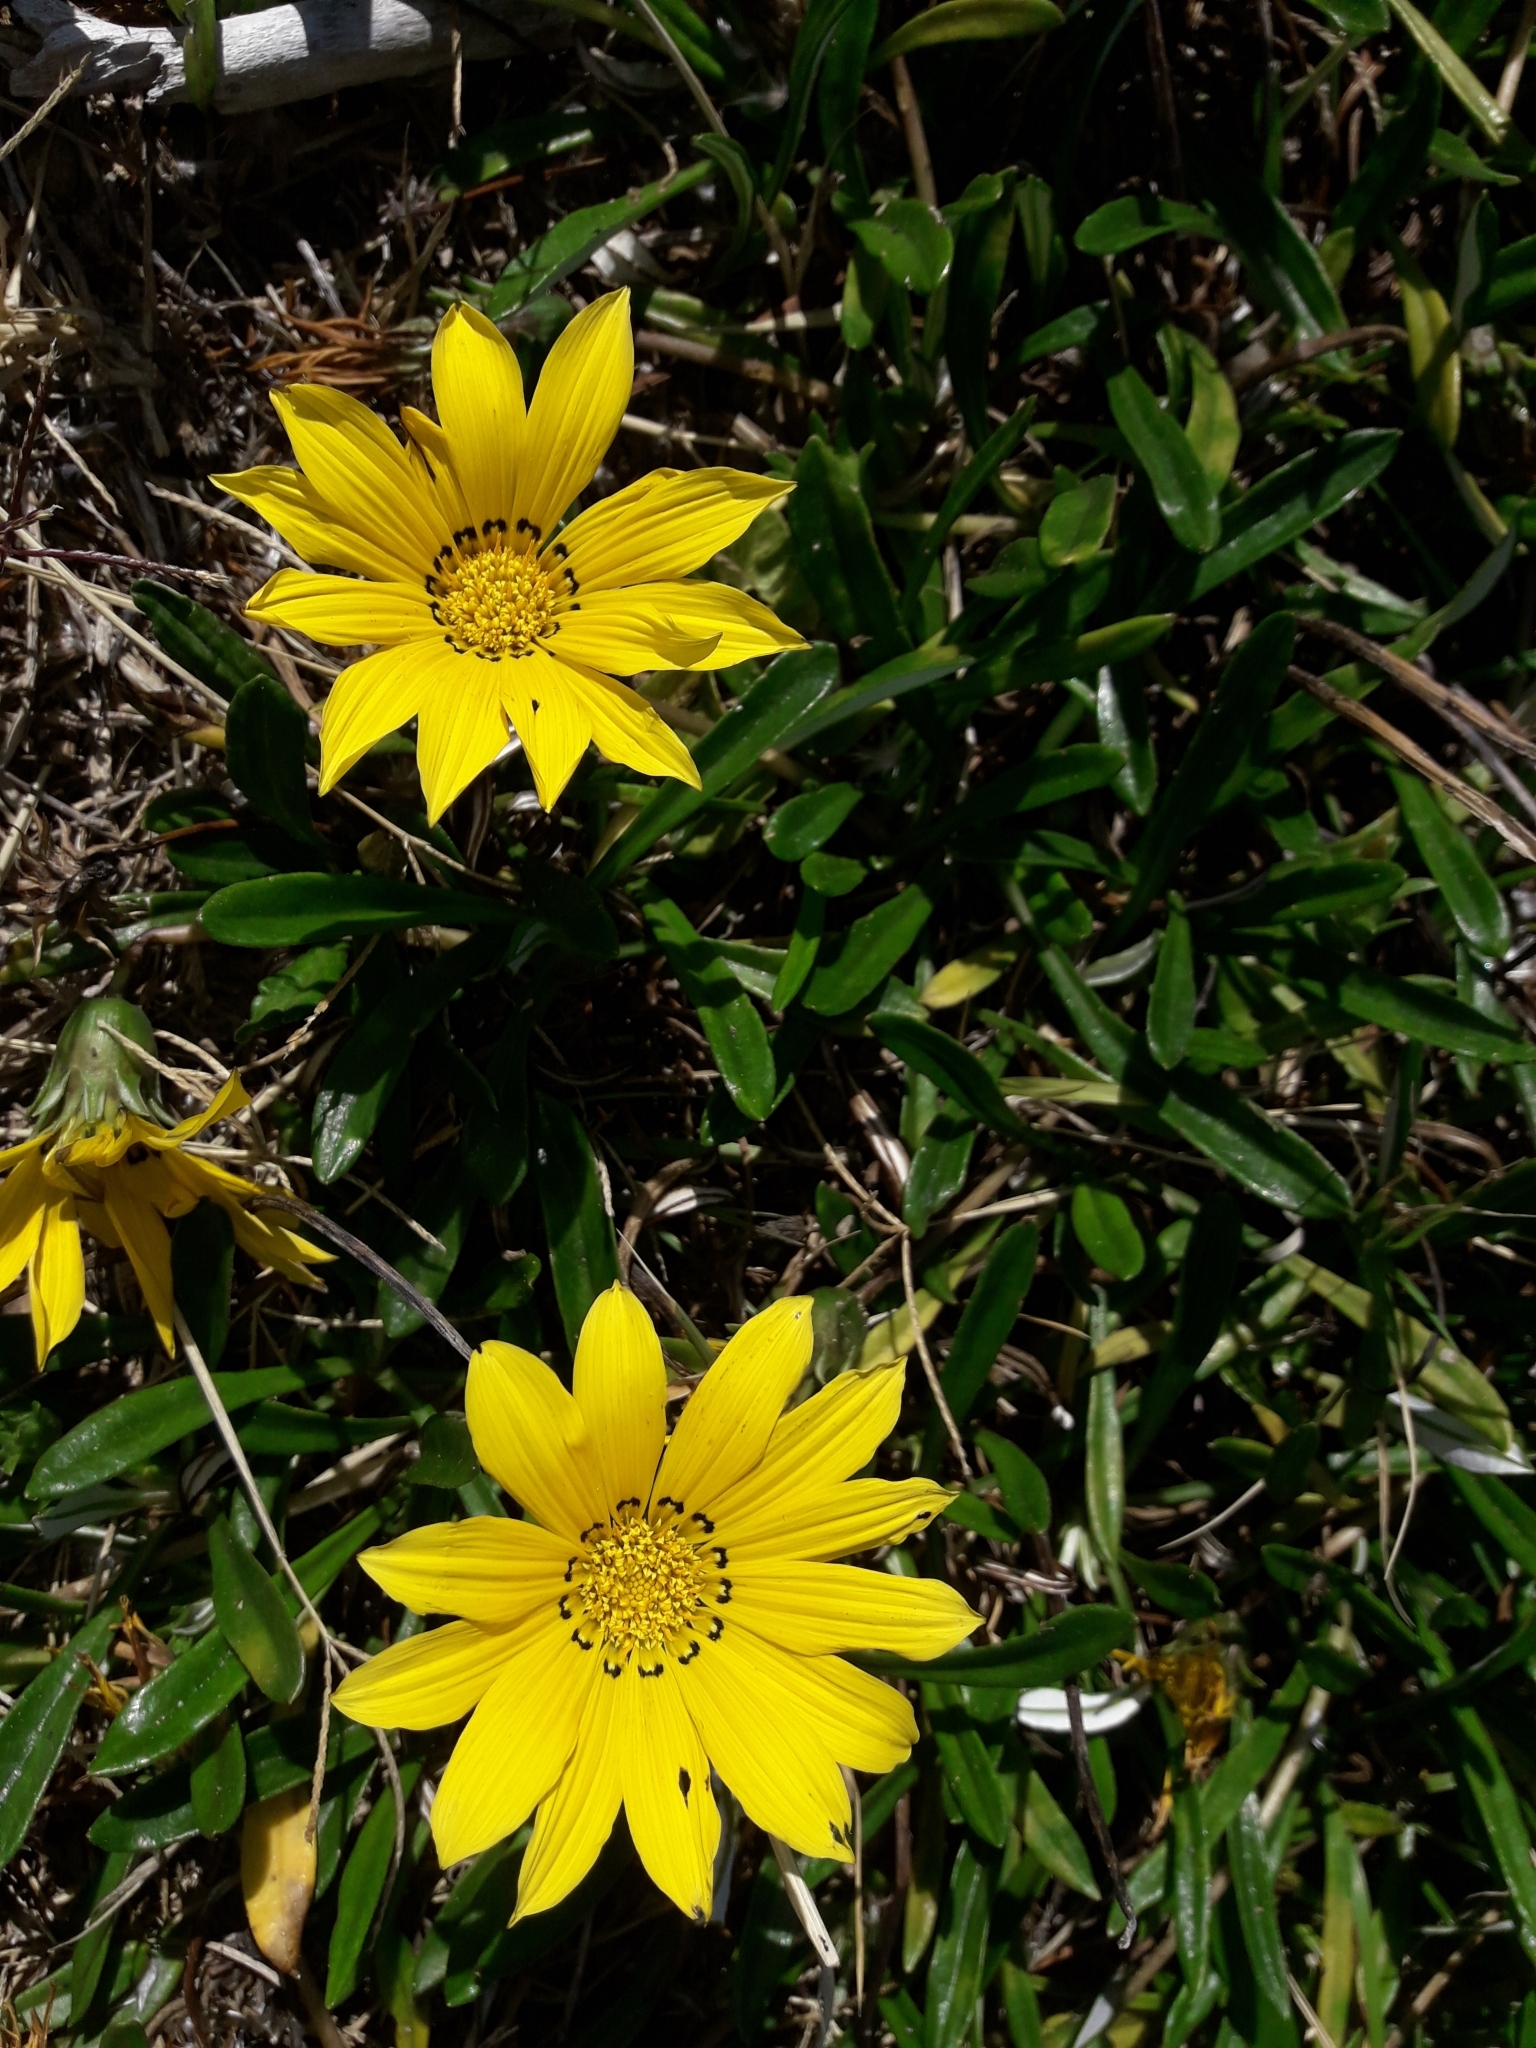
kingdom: Plantae
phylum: Tracheophyta
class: Magnoliopsida
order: Asterales
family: Asteraceae
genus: Gazania
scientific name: Gazania rigens
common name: Treasureflower
